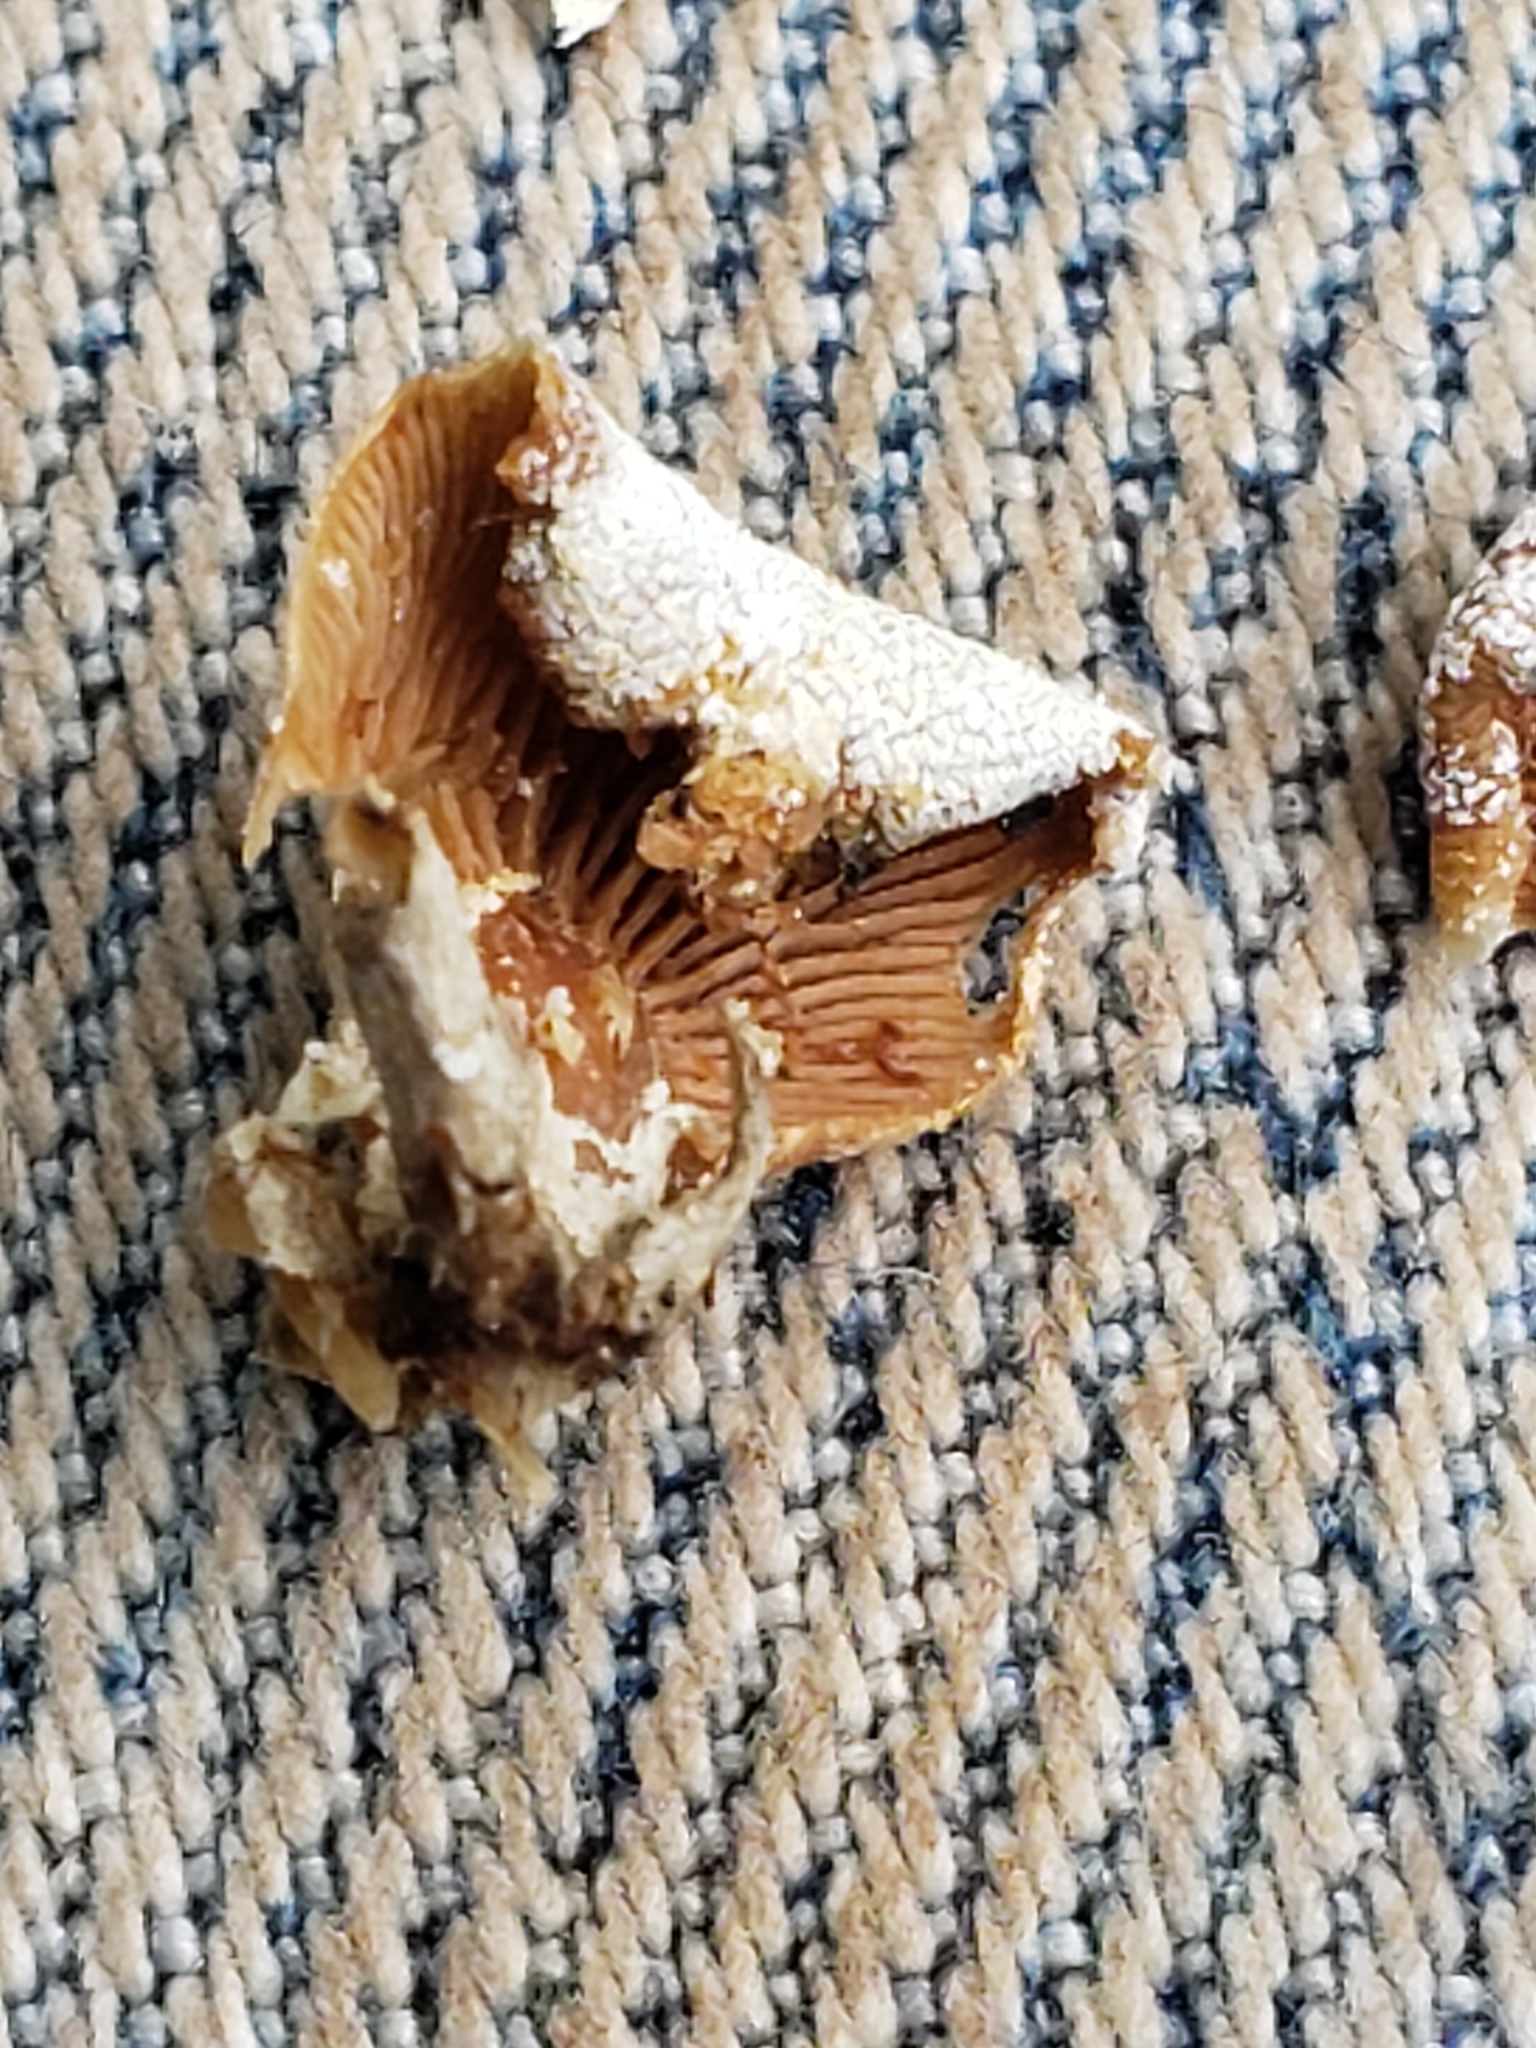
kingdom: Fungi
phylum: Basidiomycota
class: Agaricomycetes
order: Agaricales
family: Mycenaceae
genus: Panellus
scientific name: Panellus stipticus
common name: Bitter oysterling
